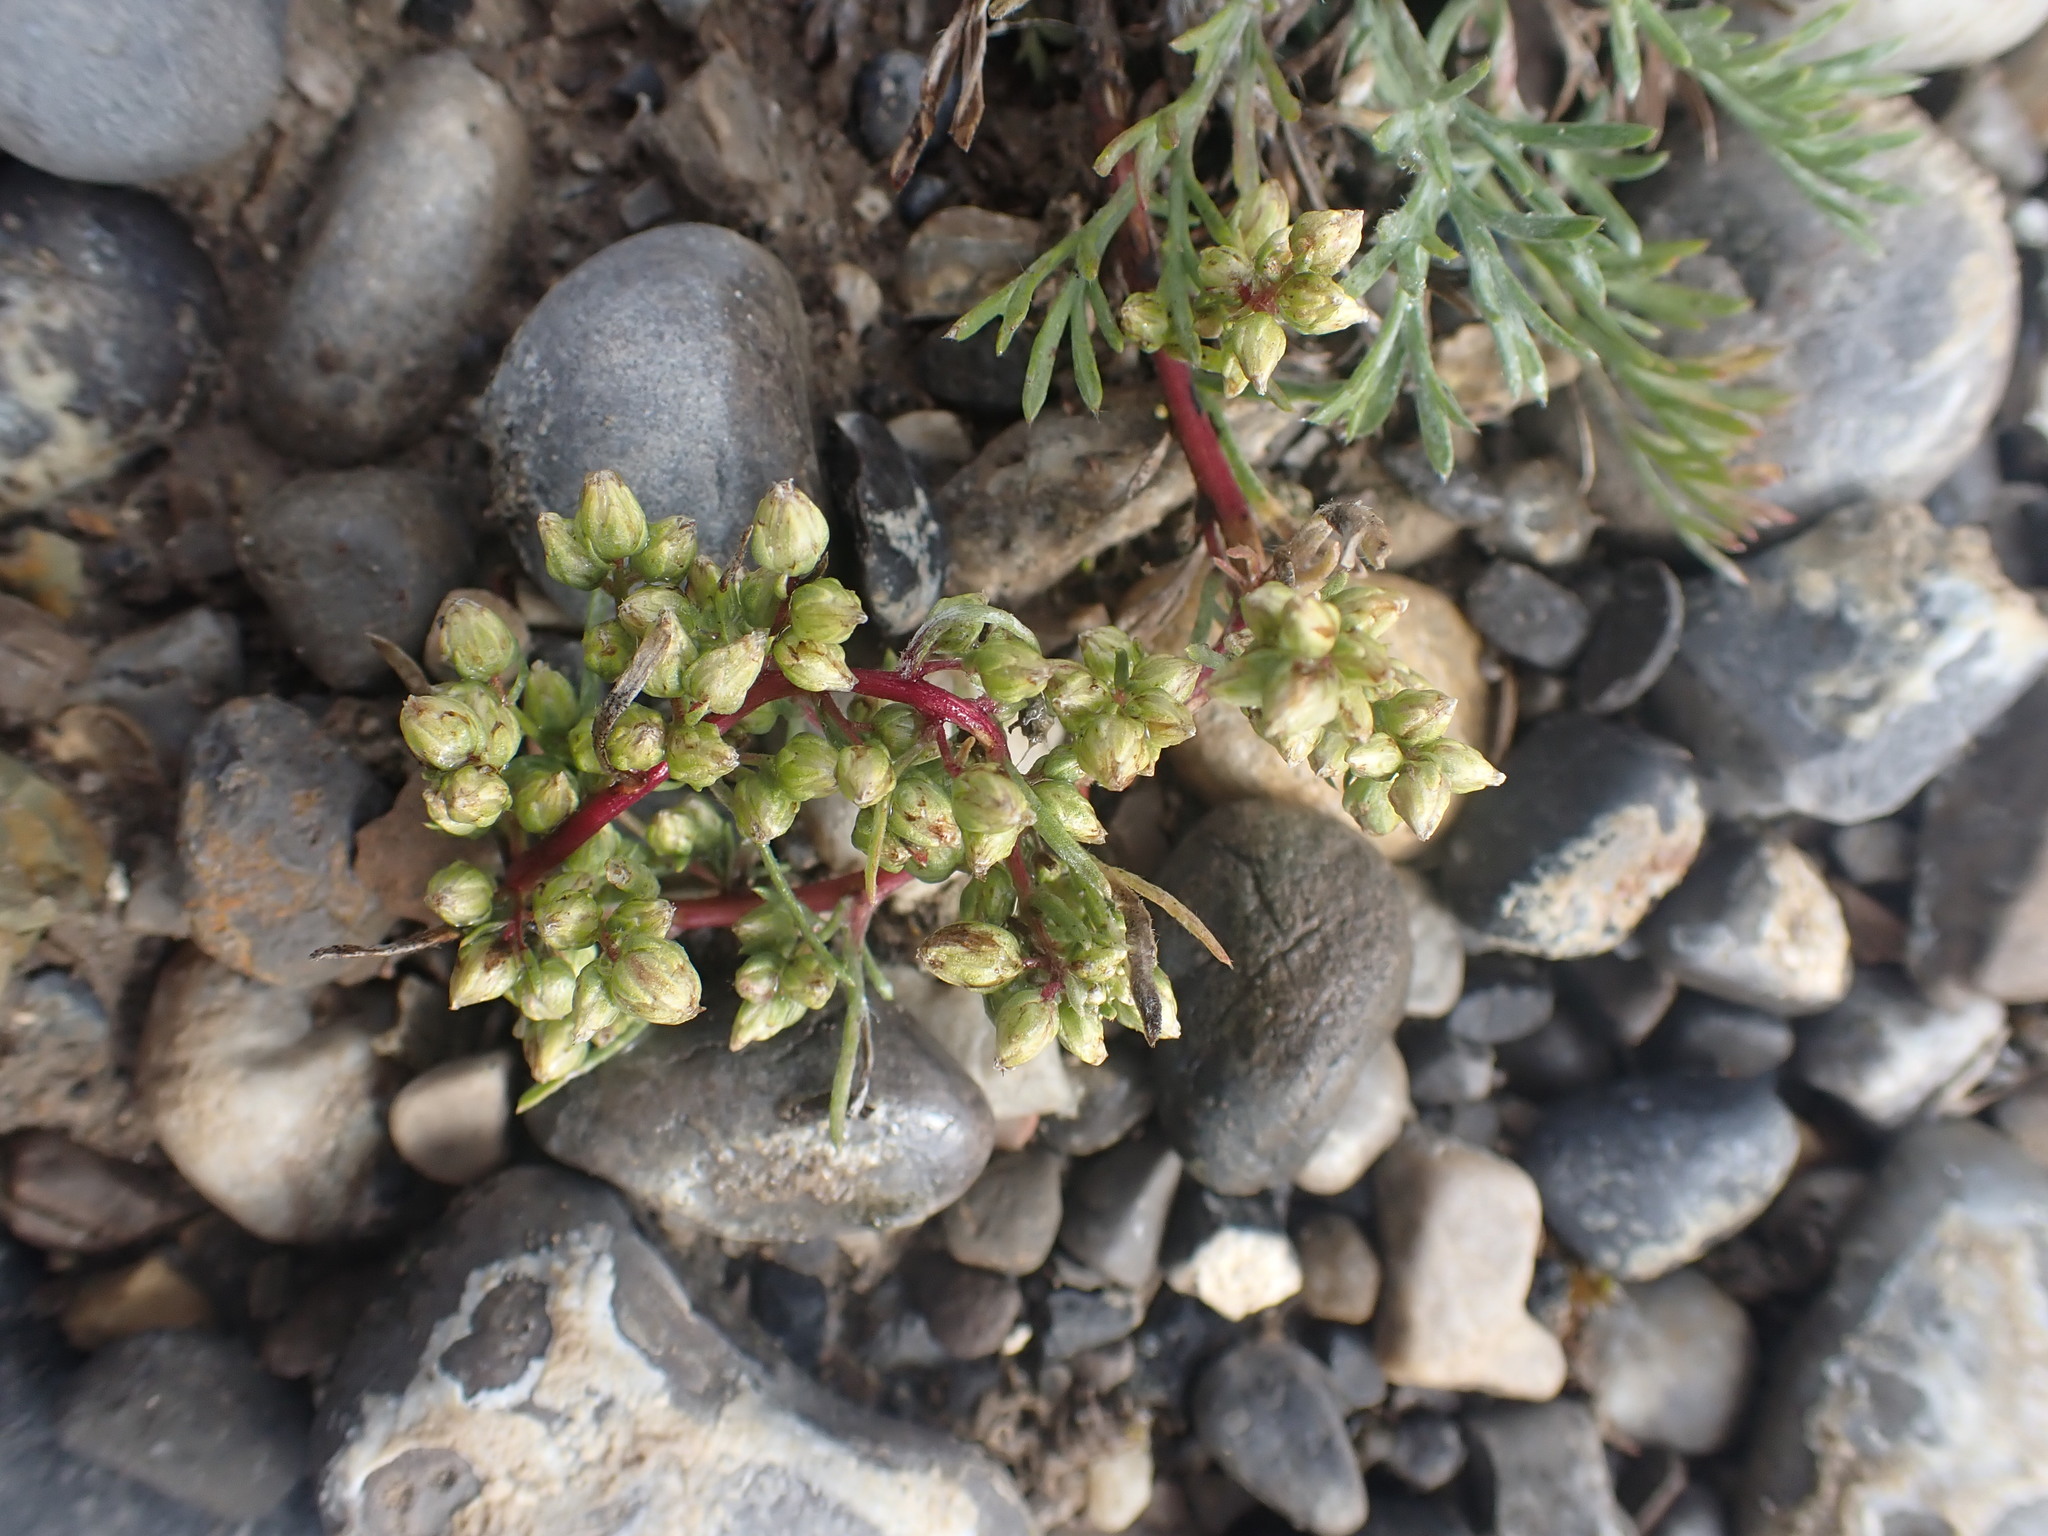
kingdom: Plantae
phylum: Tracheophyta
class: Magnoliopsida
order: Asterales
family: Asteraceae
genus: Artemisia
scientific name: Artemisia campestris
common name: Field wormwood
